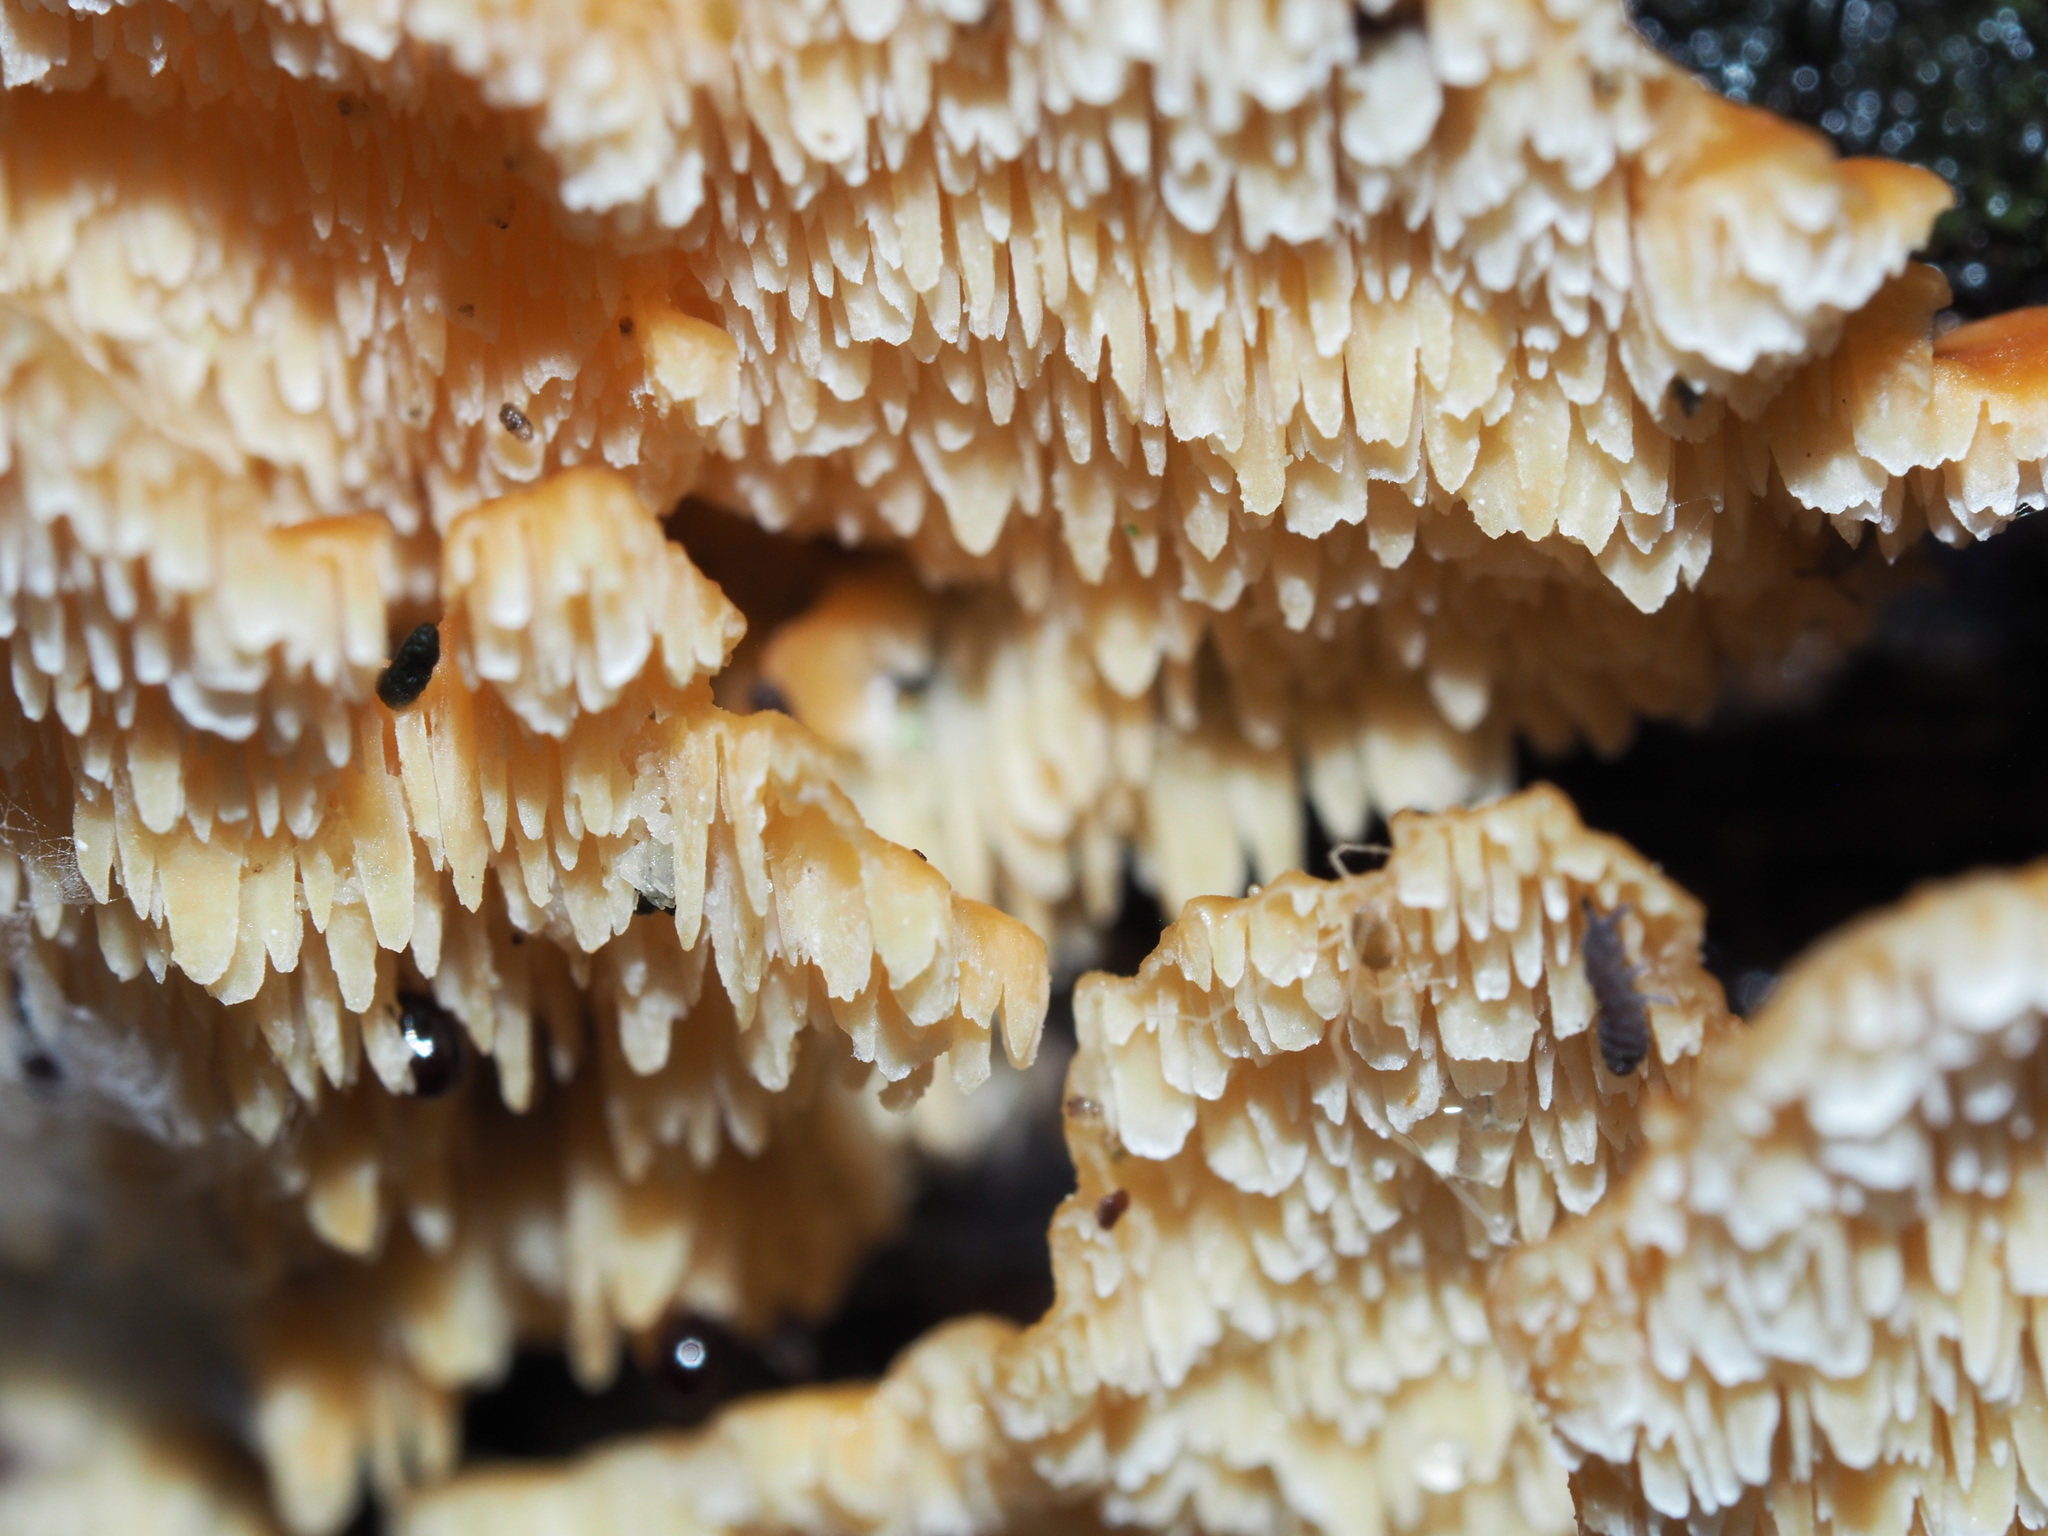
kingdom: Fungi
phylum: Basidiomycota
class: Agaricomycetes
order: Polyporales
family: Cerrenaceae
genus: Cerrena
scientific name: Cerrena zonata
